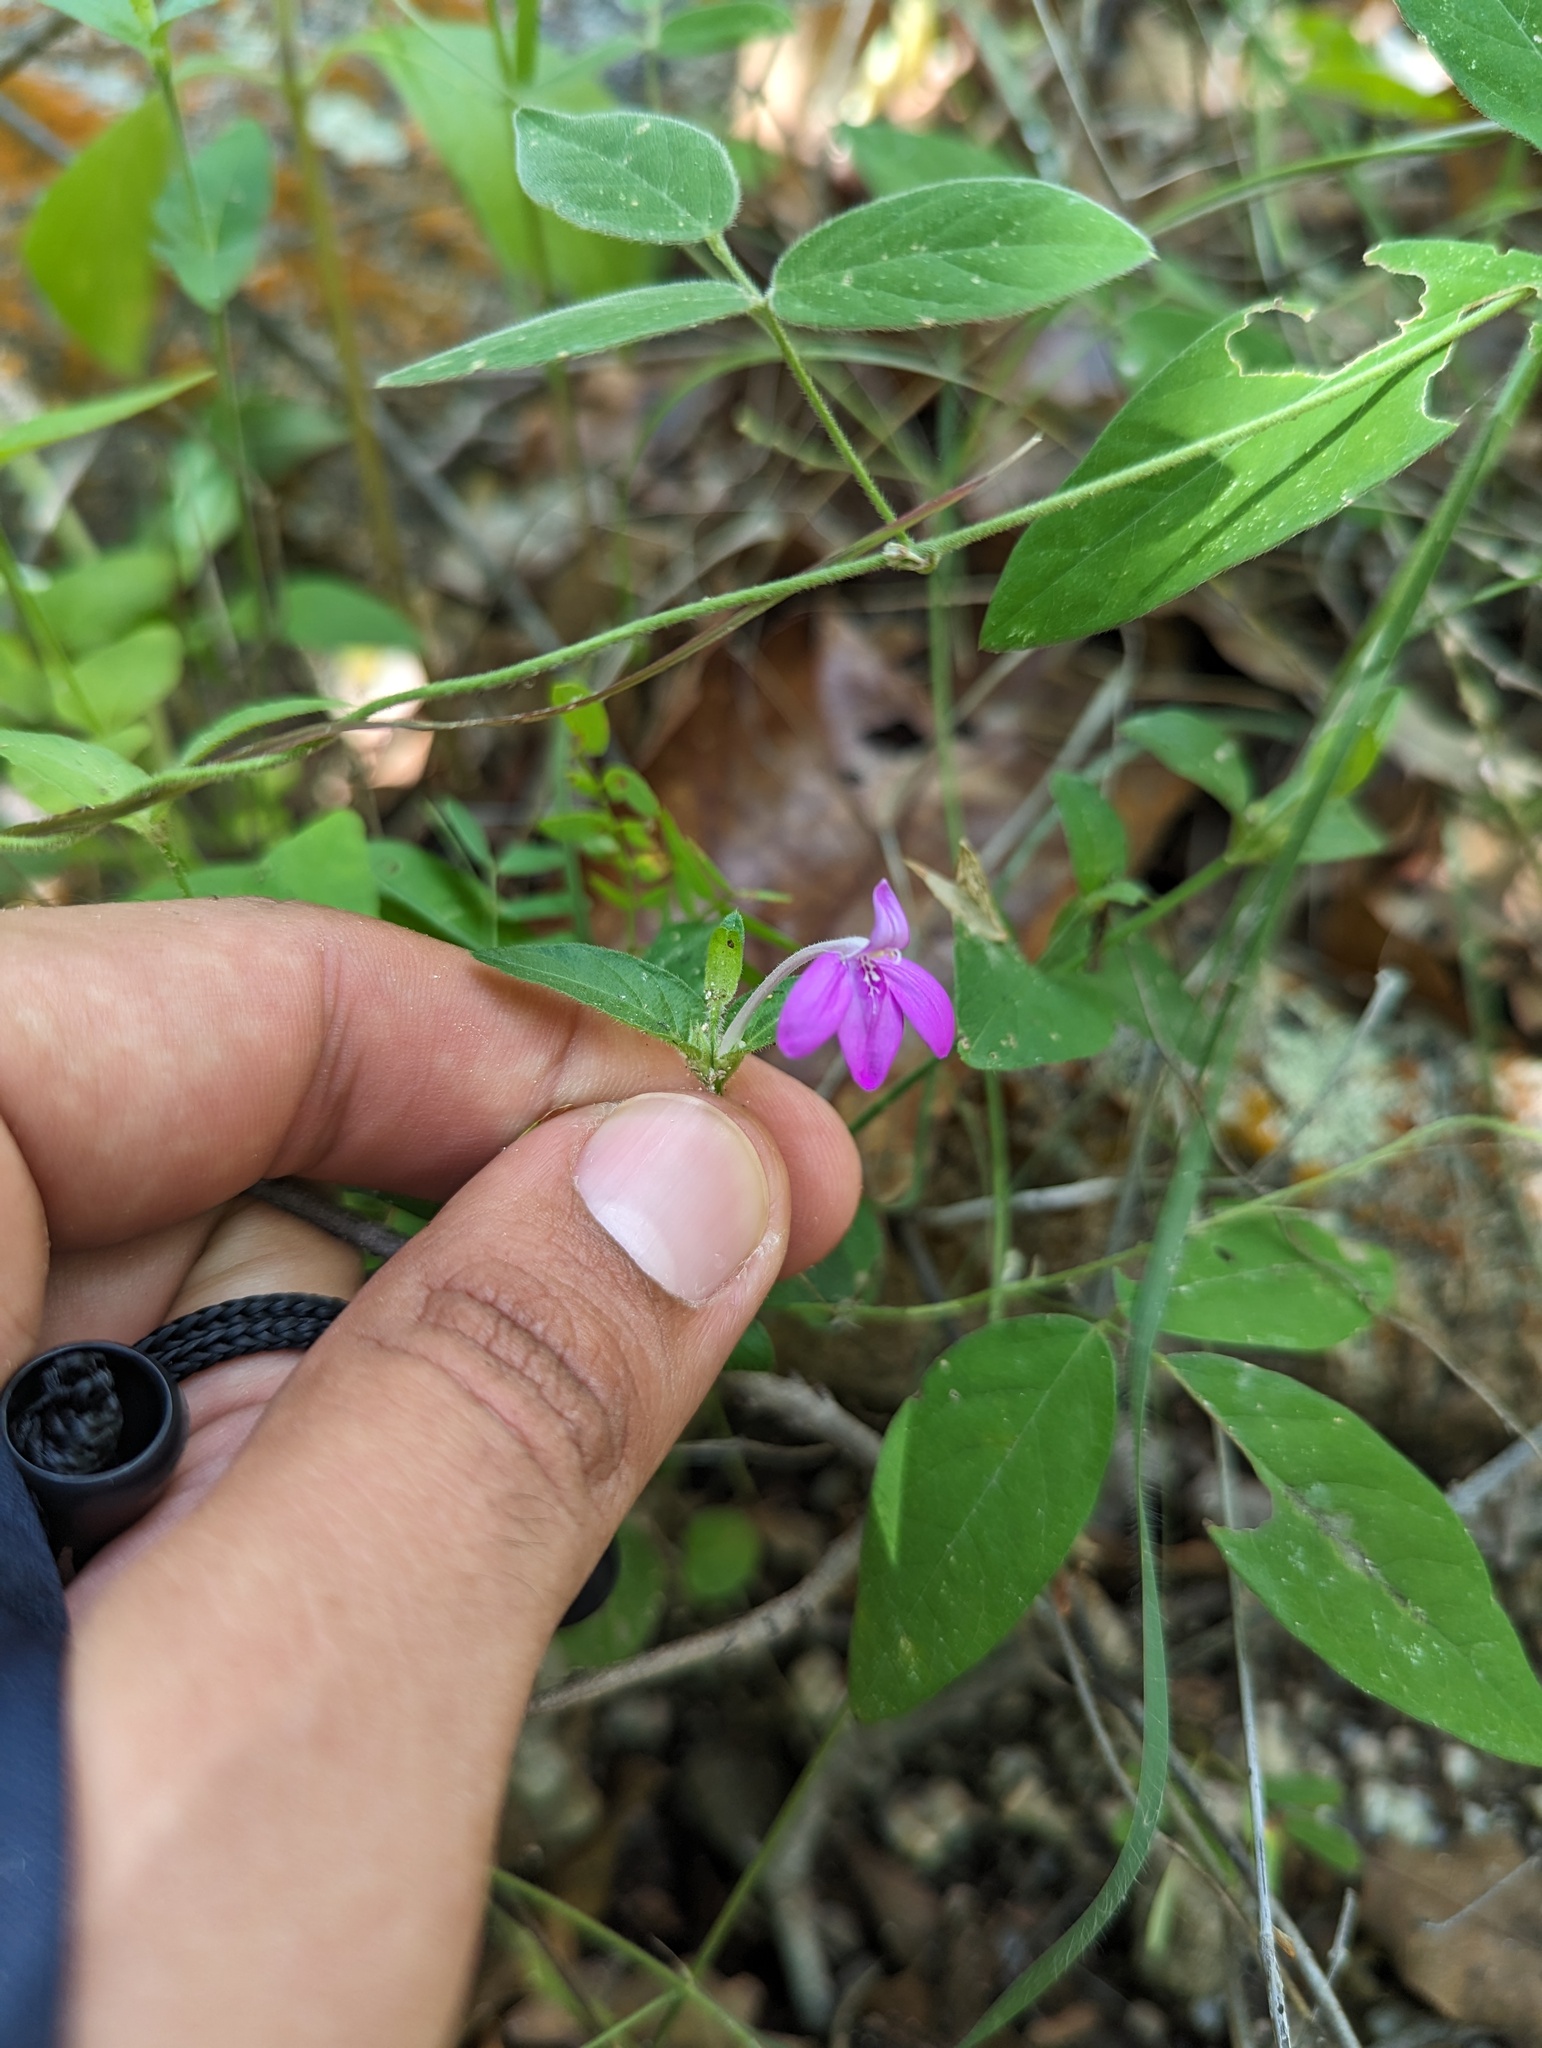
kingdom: Plantae
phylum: Tracheophyta
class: Magnoliopsida
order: Lamiales
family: Acanthaceae
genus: Dianthera
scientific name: Dianthera incerta
